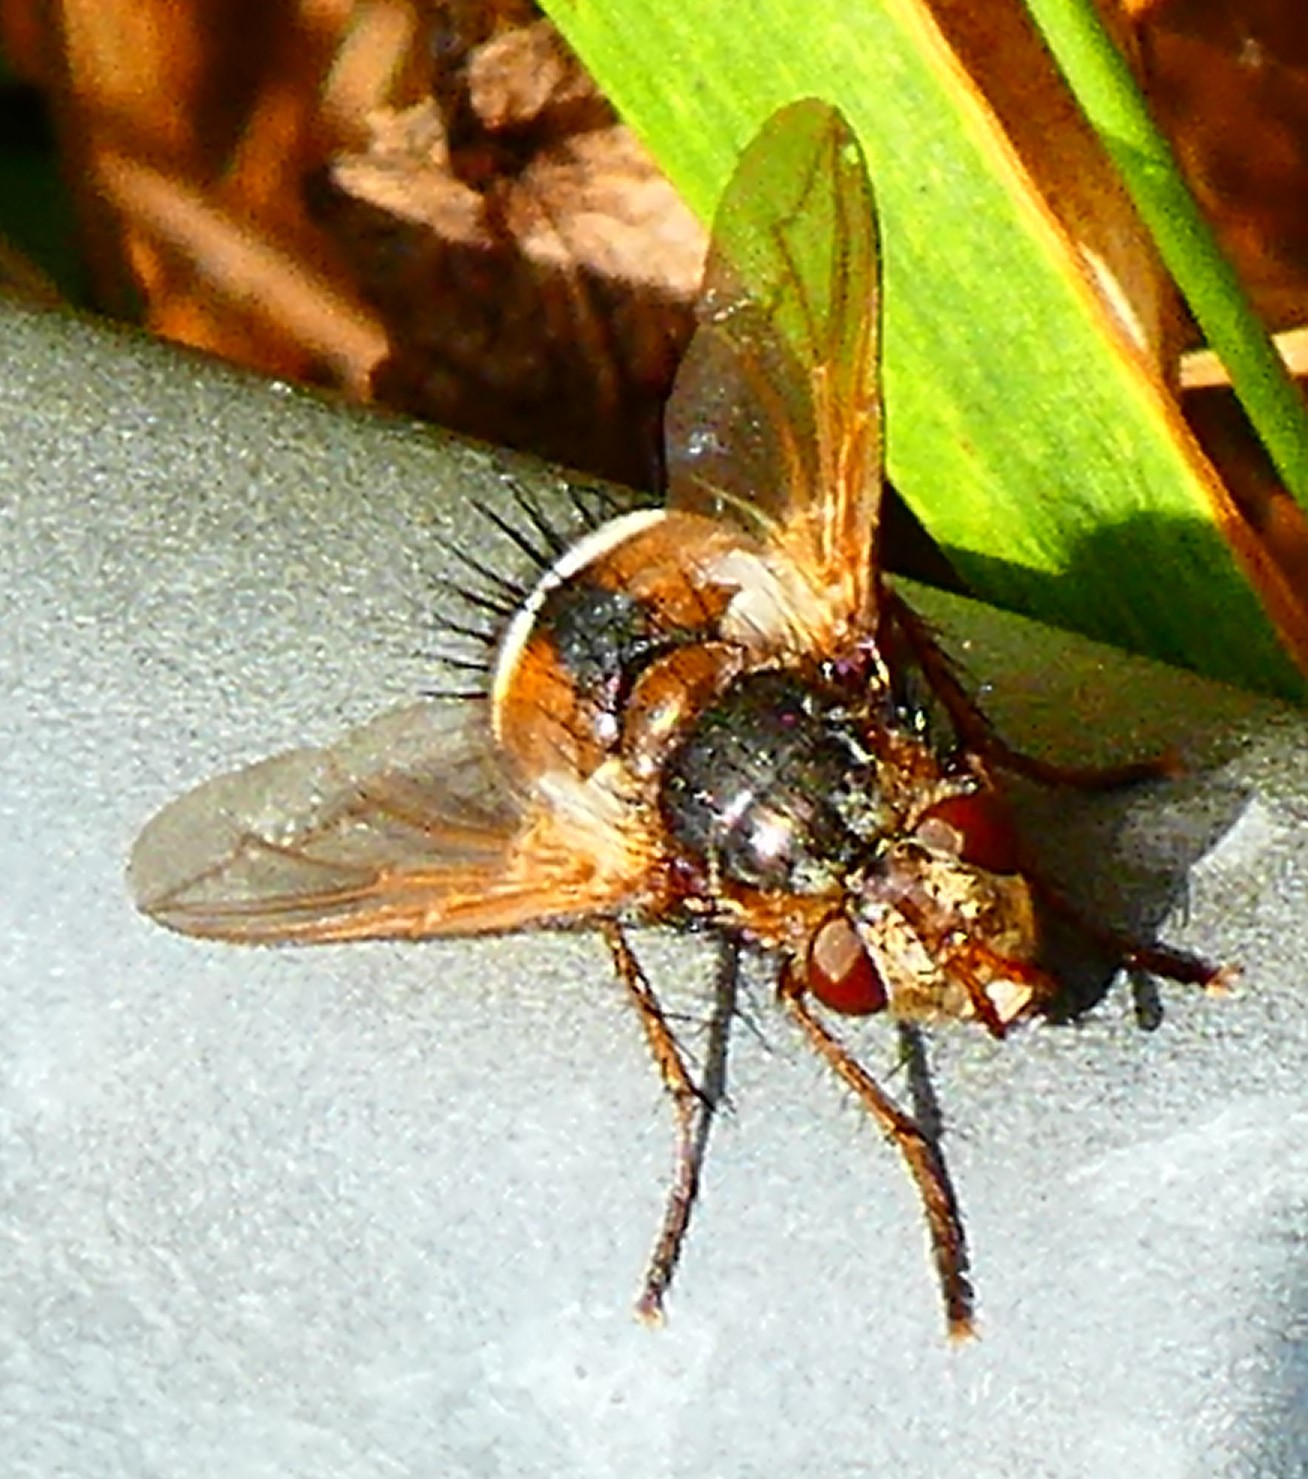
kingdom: Animalia
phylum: Arthropoda
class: Insecta
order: Diptera
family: Tachinidae
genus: Tachina
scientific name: Tachina fera
